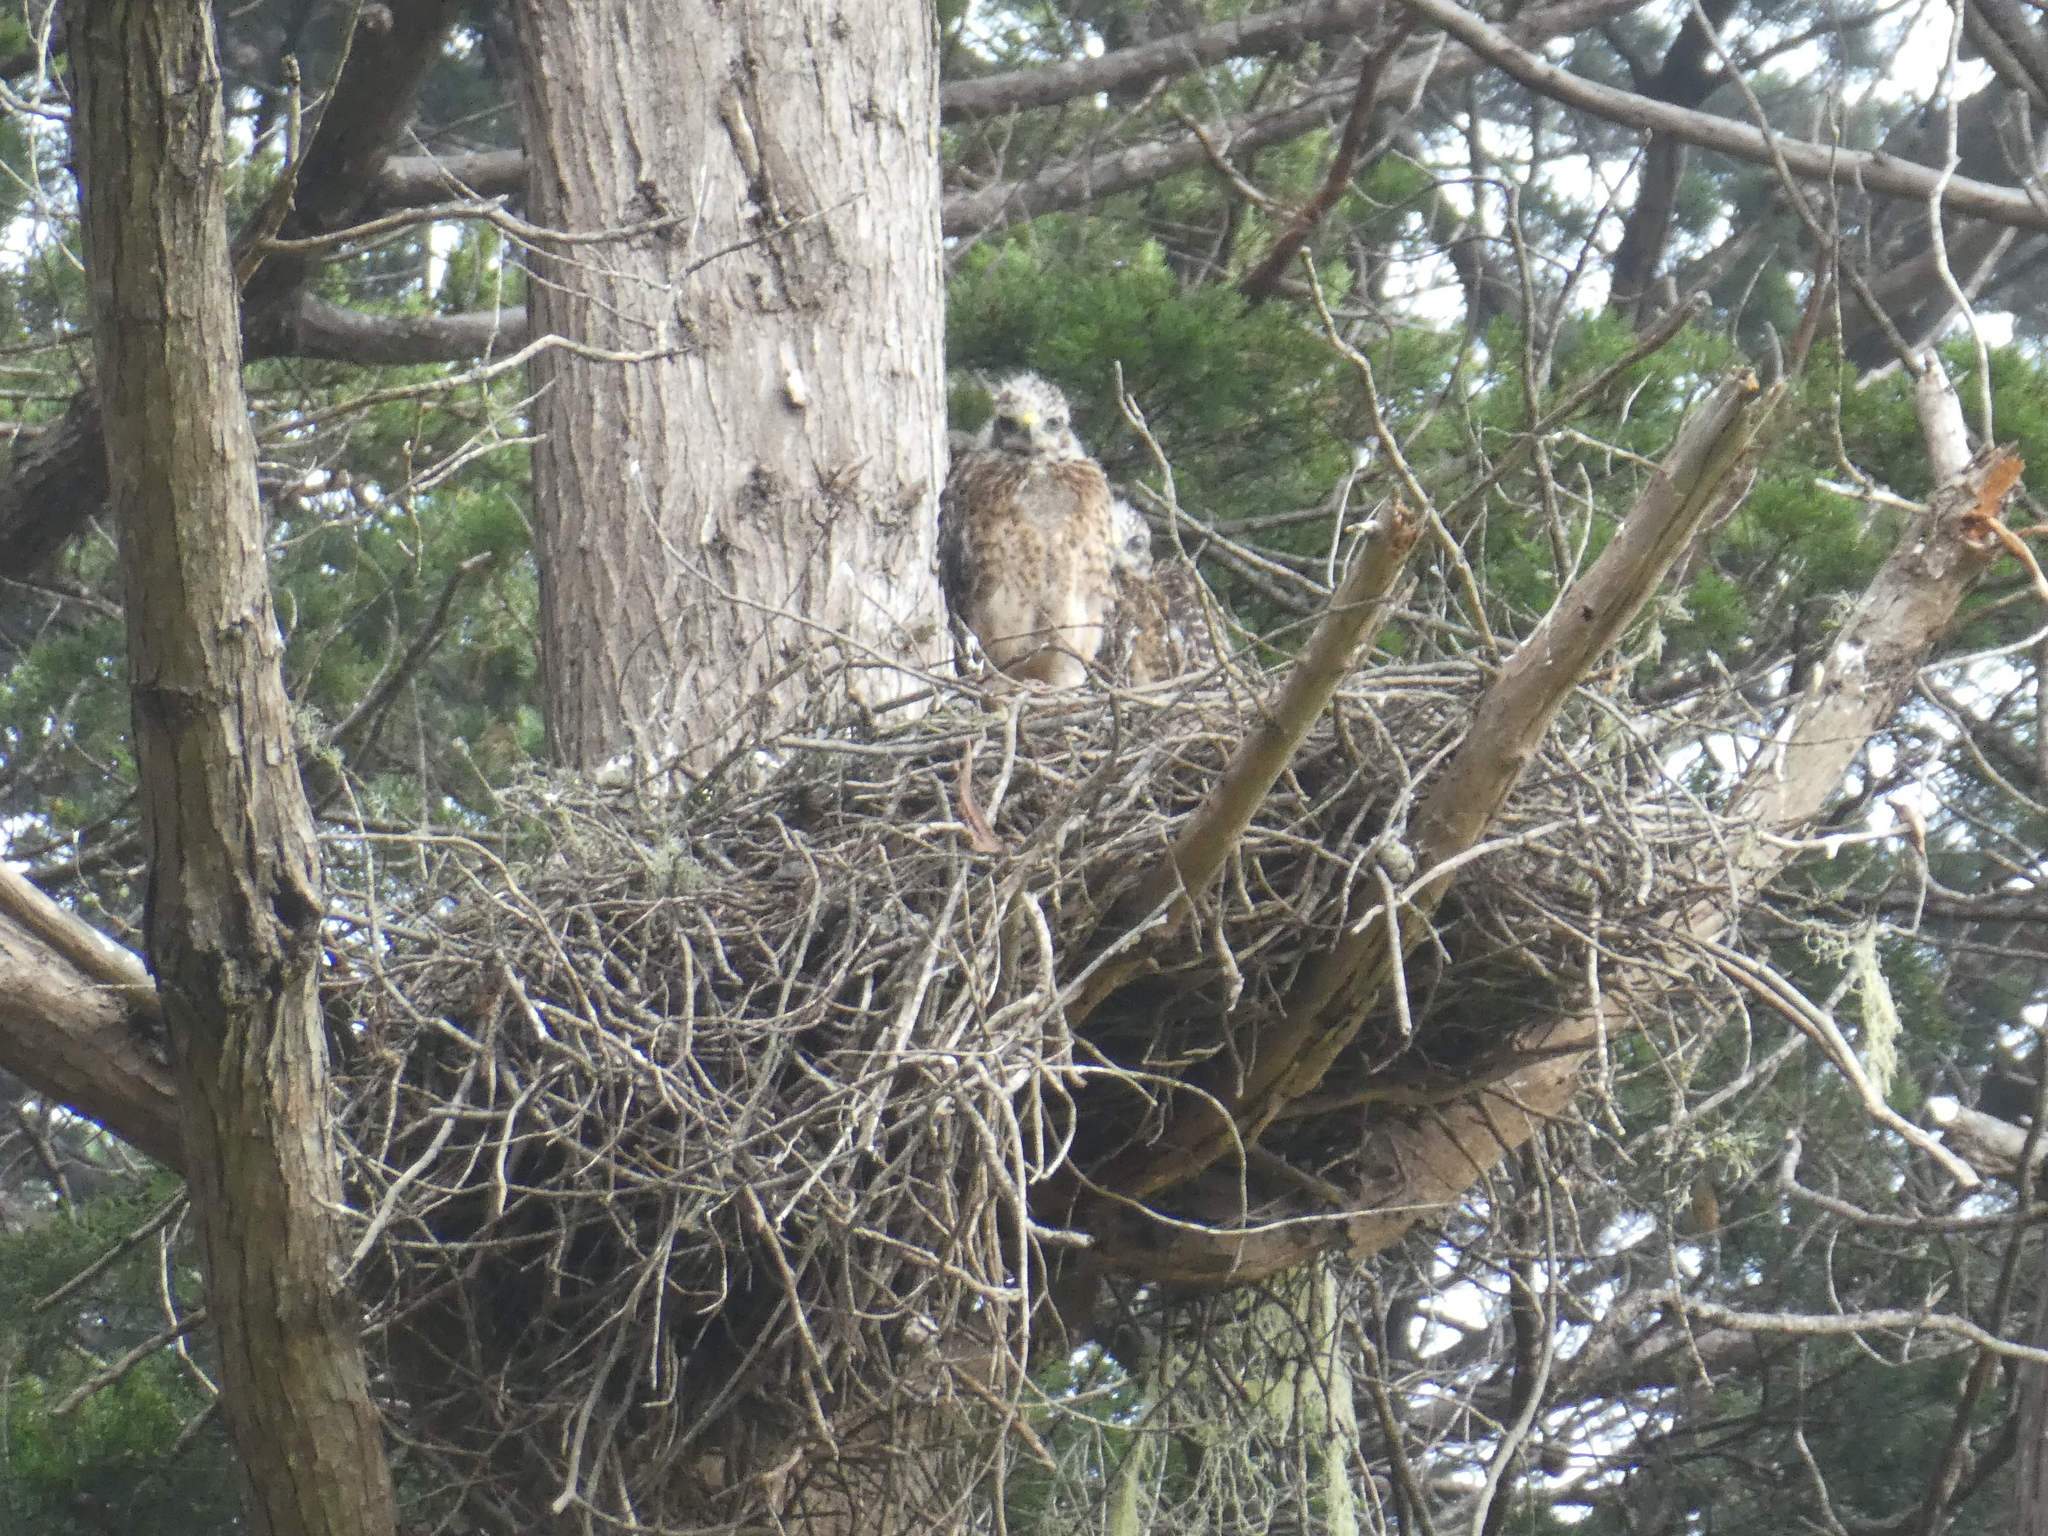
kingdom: Animalia
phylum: Chordata
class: Aves
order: Accipitriformes
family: Accipitridae
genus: Buteo
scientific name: Buteo lineatus
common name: Red-shouldered hawk
